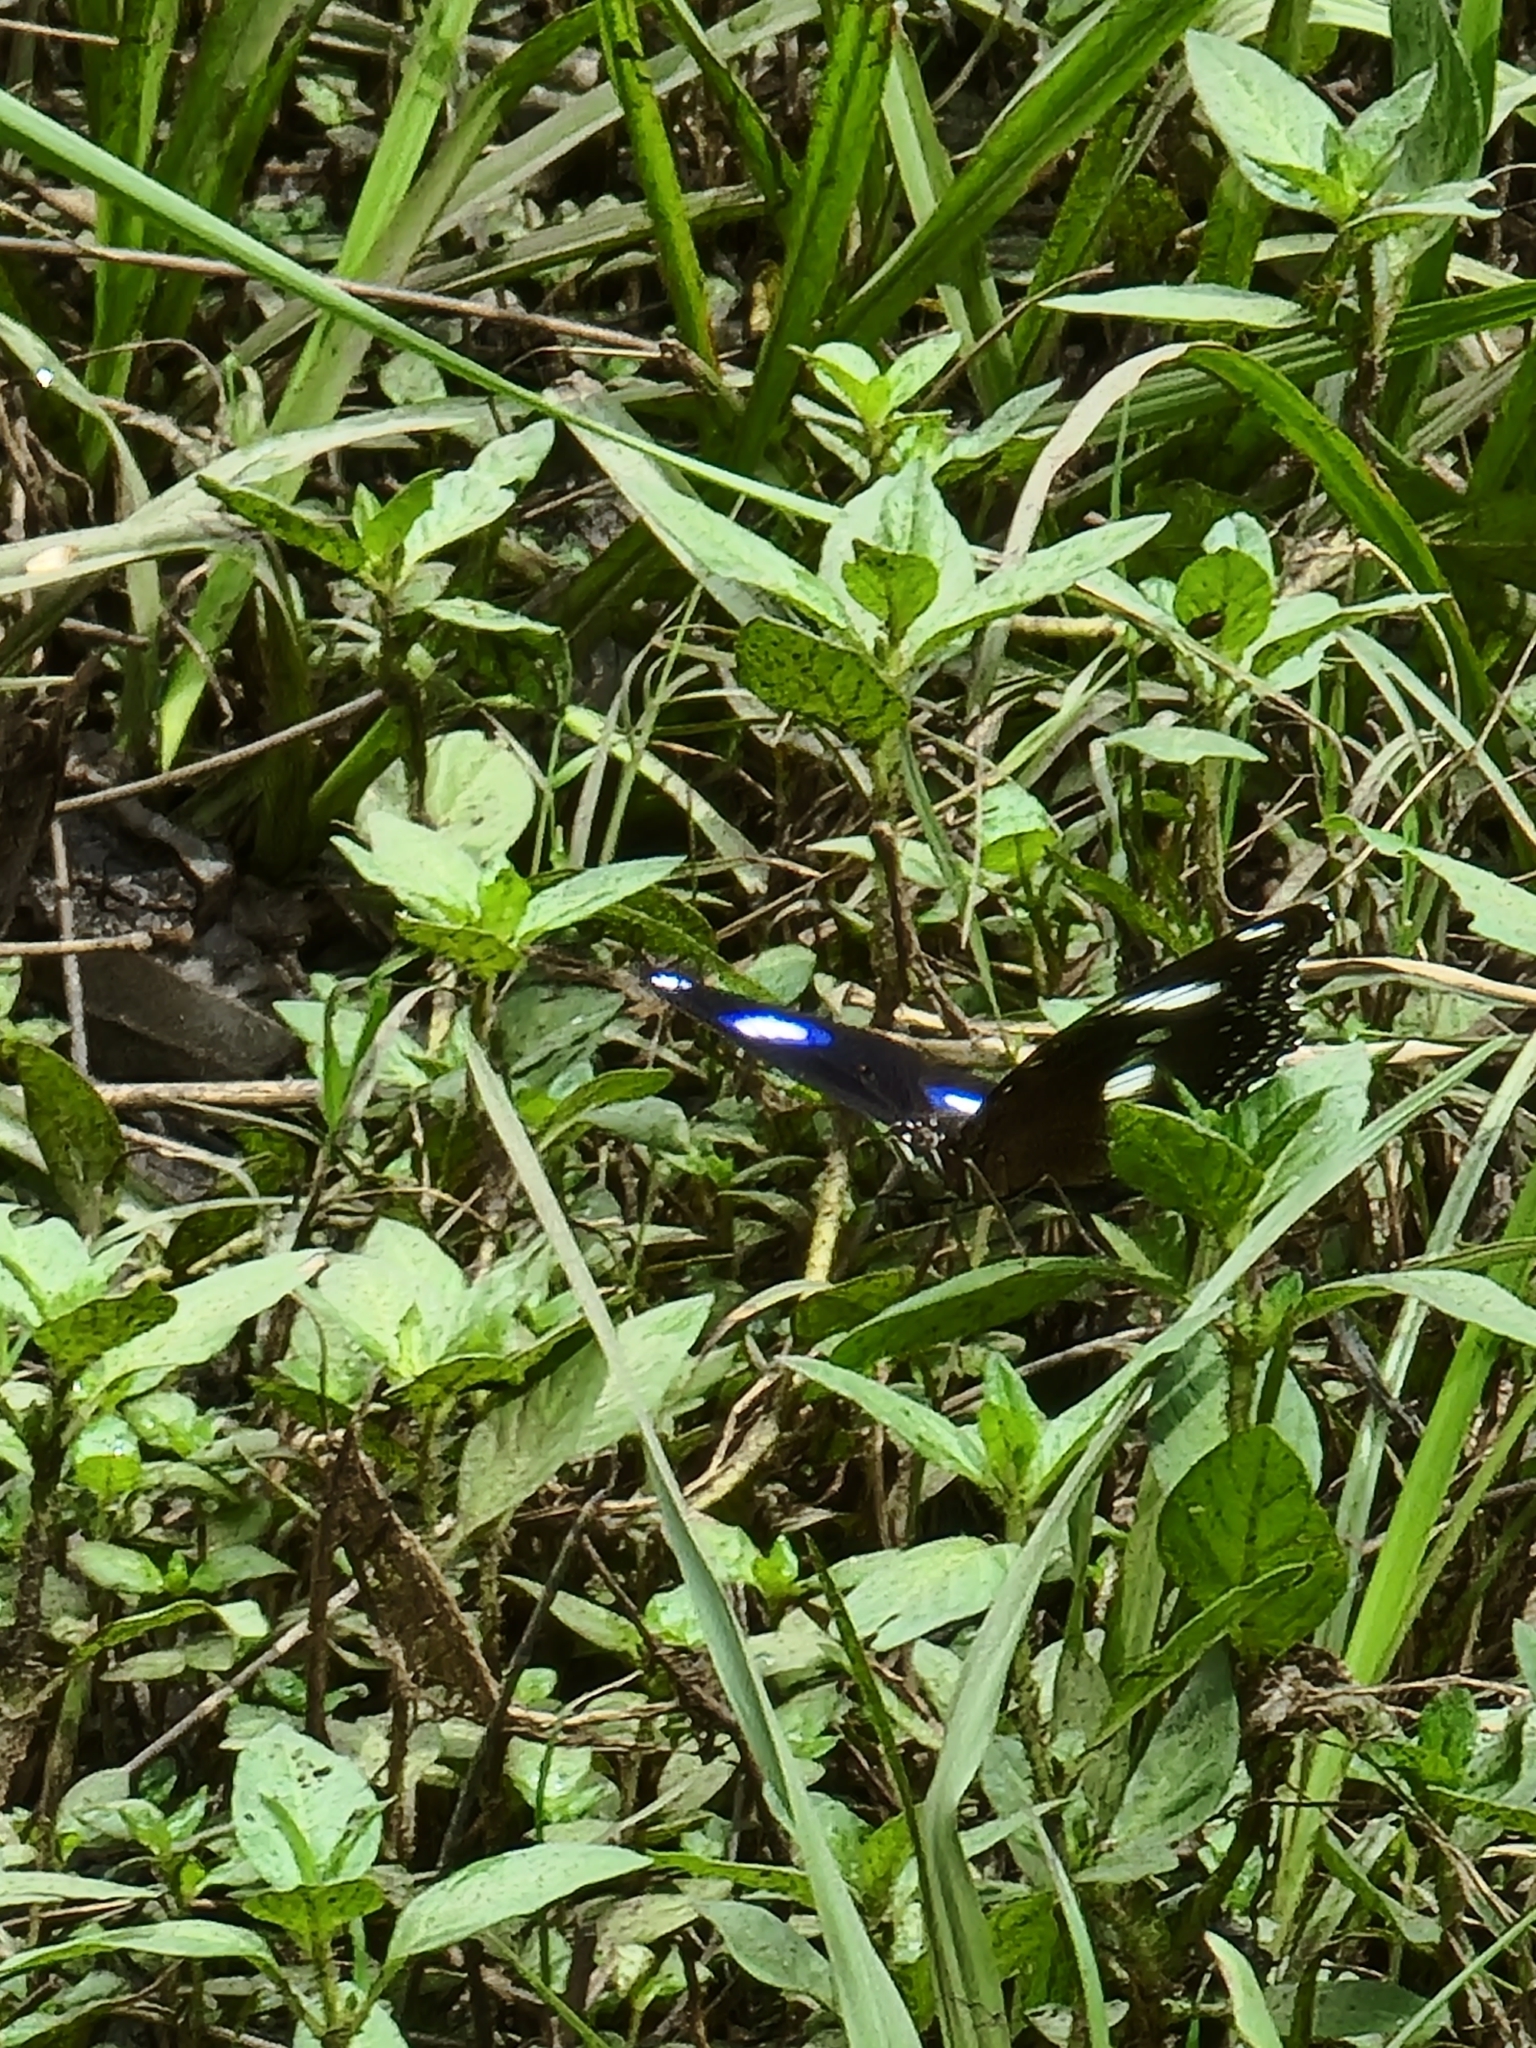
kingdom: Animalia
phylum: Arthropoda
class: Insecta
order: Lepidoptera
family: Nymphalidae
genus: Hypolimnas
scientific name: Hypolimnas bolina
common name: Great eggfly
